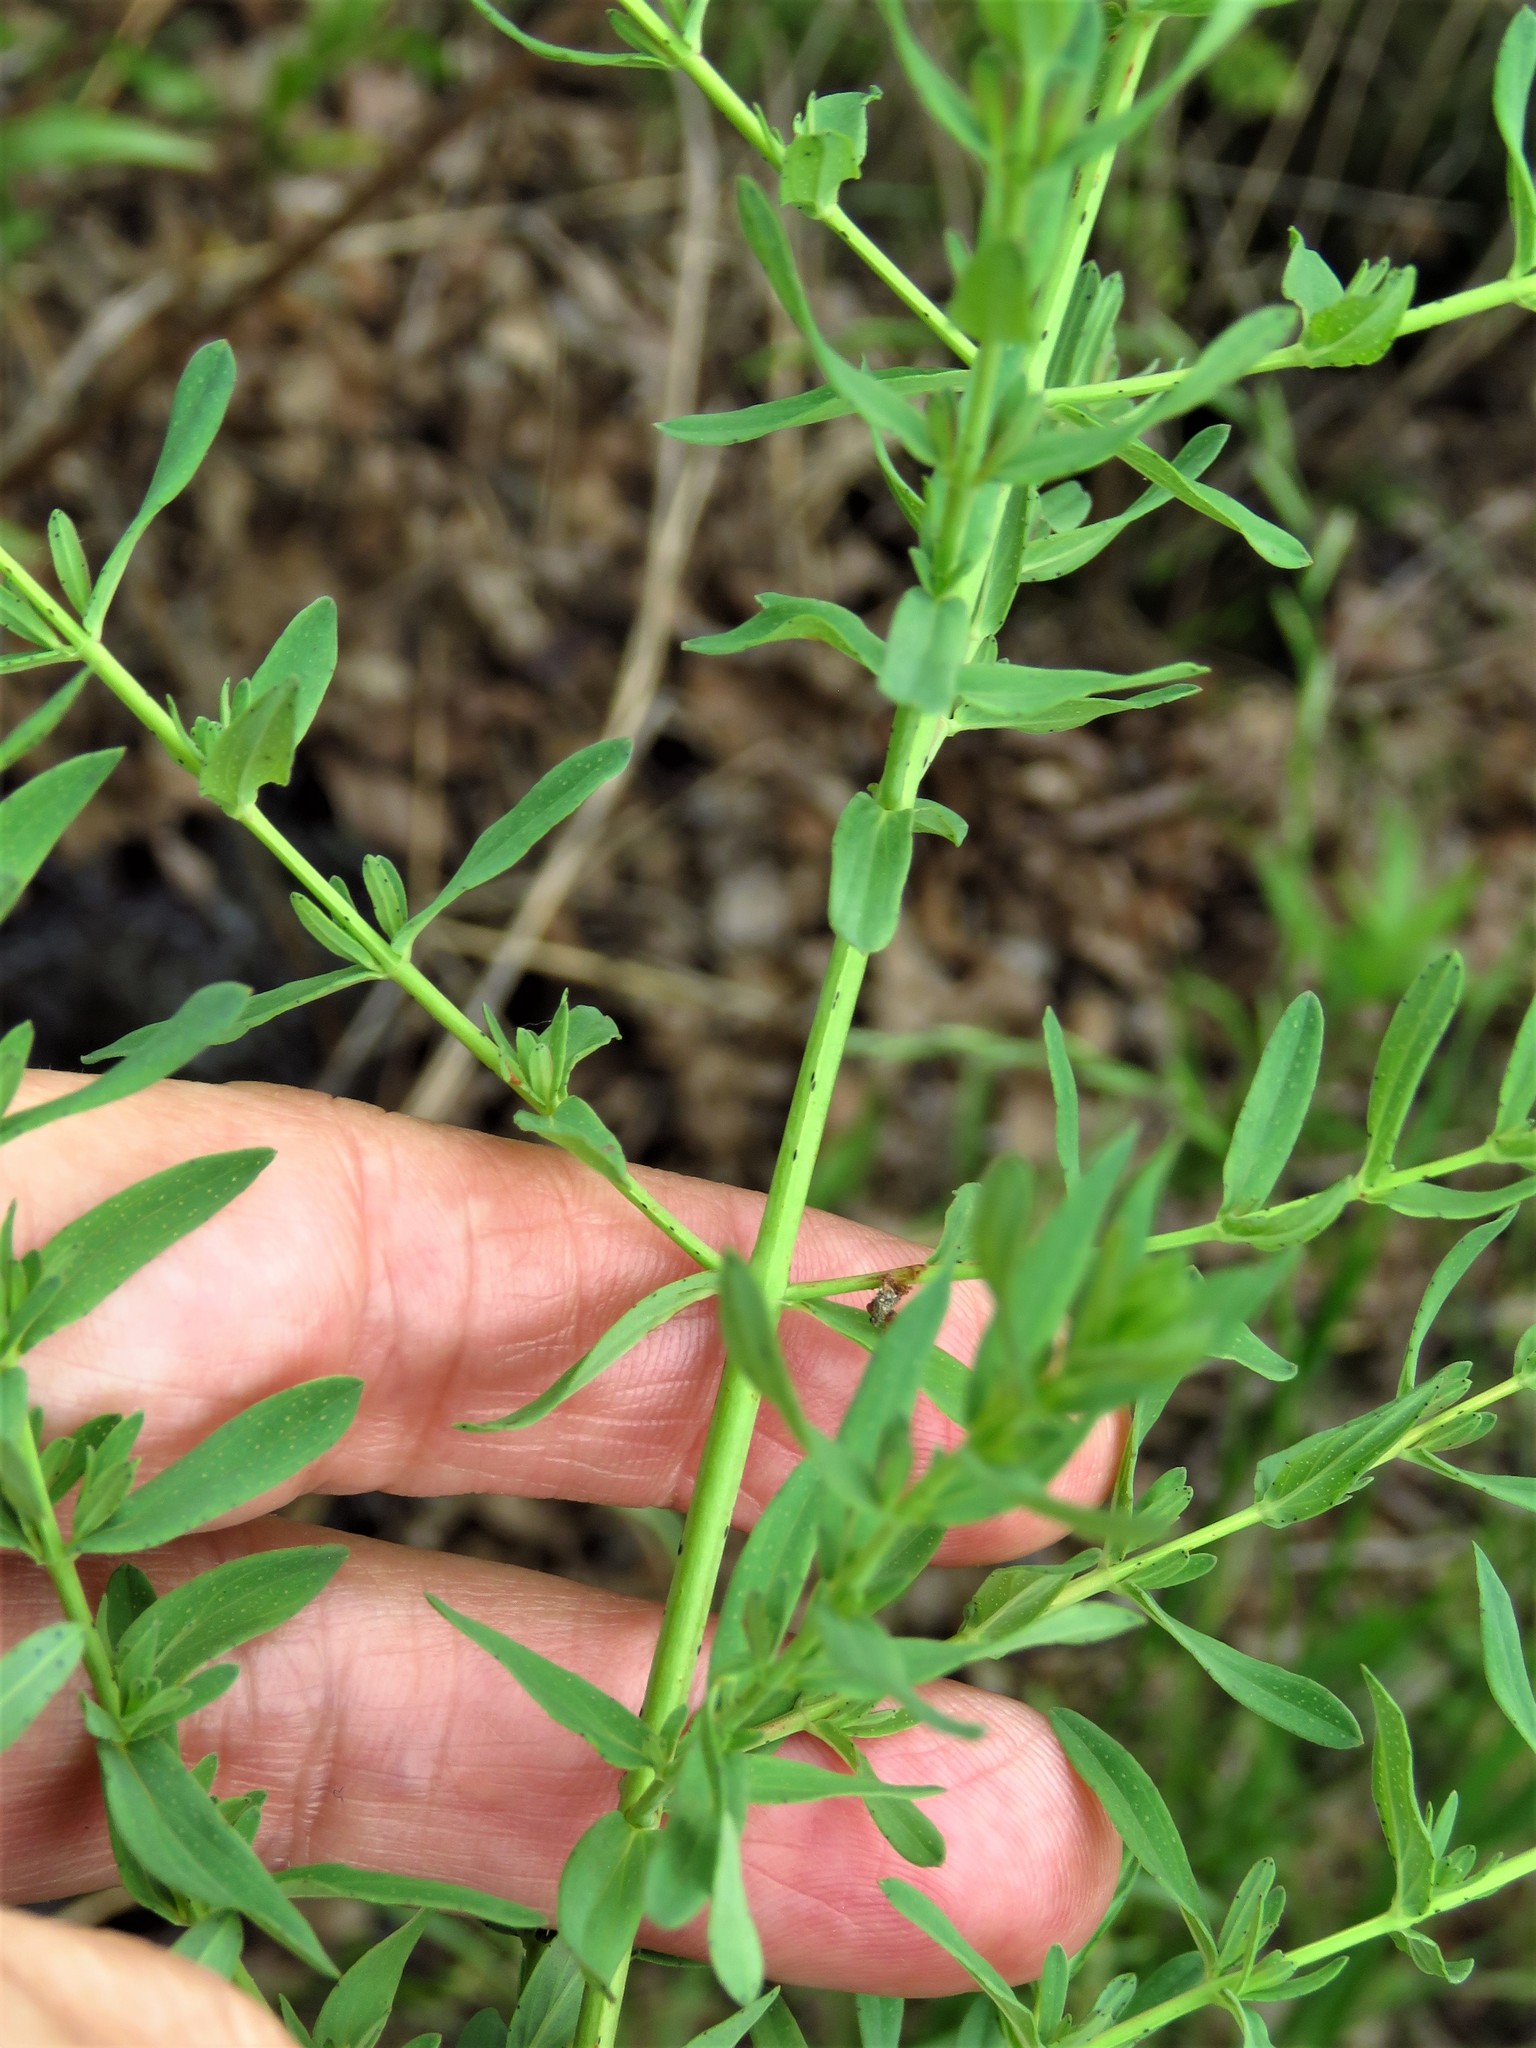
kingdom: Plantae
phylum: Tracheophyta
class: Magnoliopsida
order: Malpighiales
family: Hypericaceae
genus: Hypericum
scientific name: Hypericum perforatum
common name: Common st. johnswort
